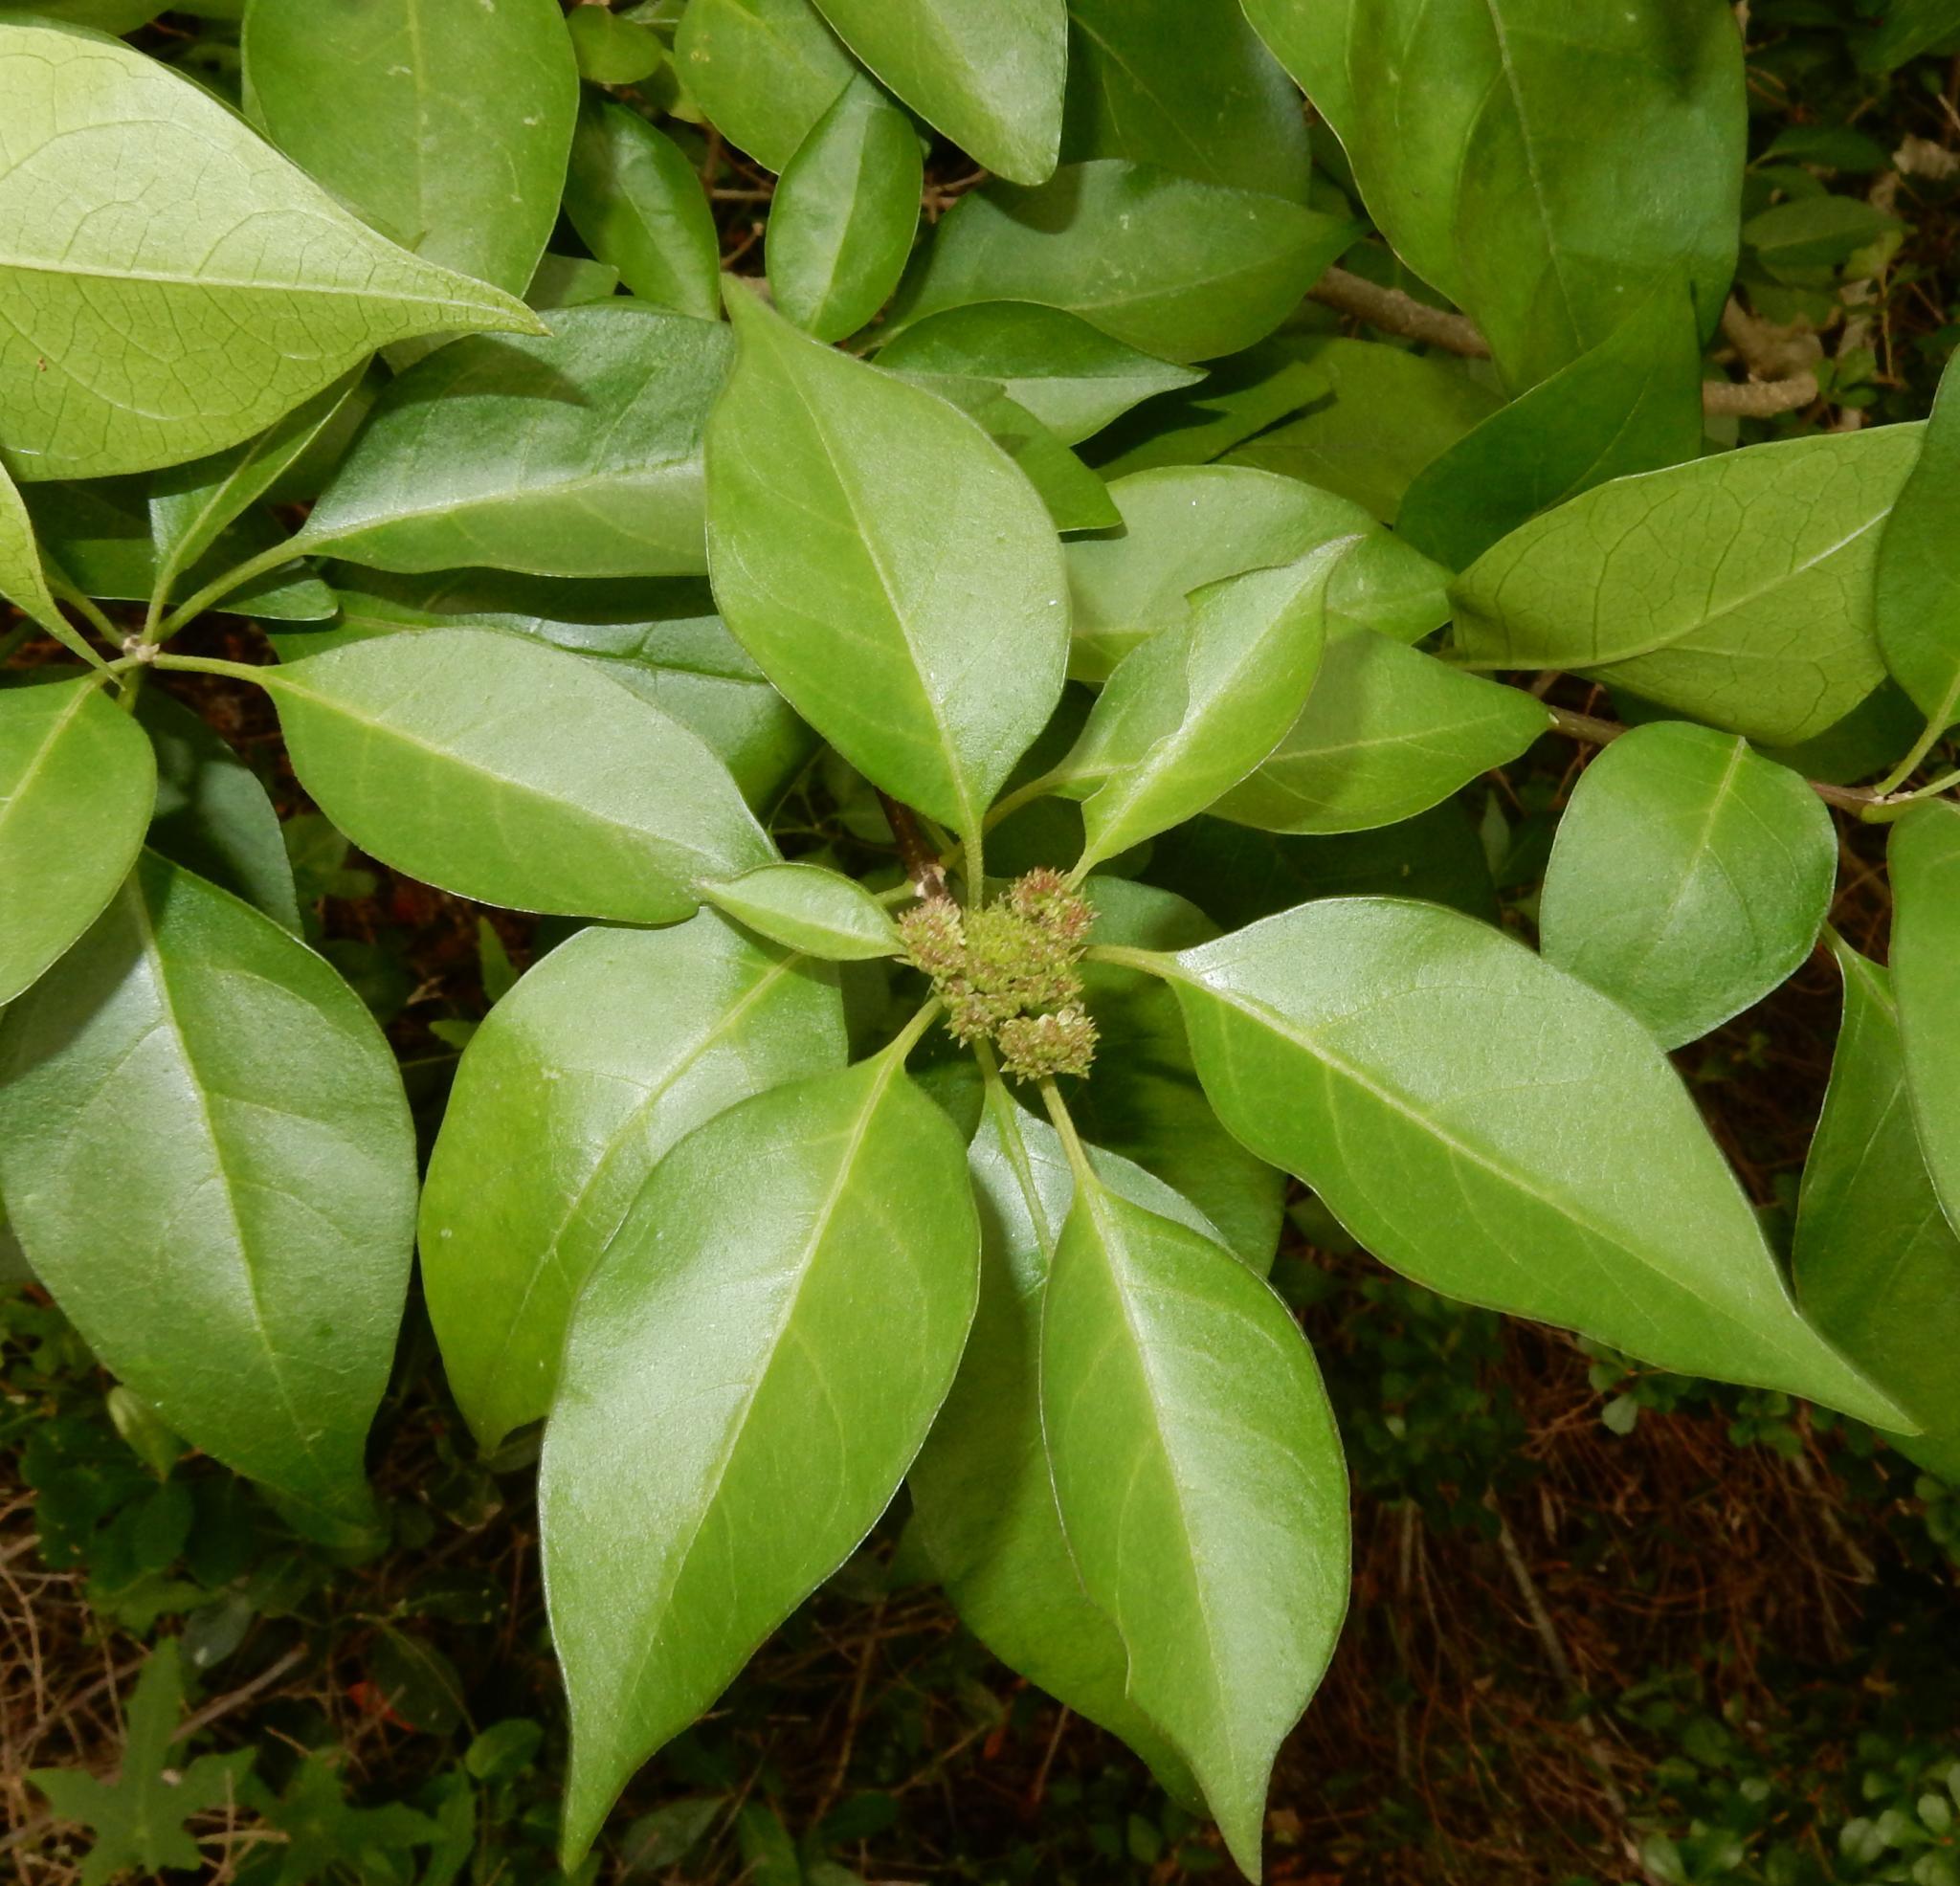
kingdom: Plantae
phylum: Tracheophyta
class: Magnoliopsida
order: Lamiales
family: Lamiaceae
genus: Volkameria
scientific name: Volkameria glabra
